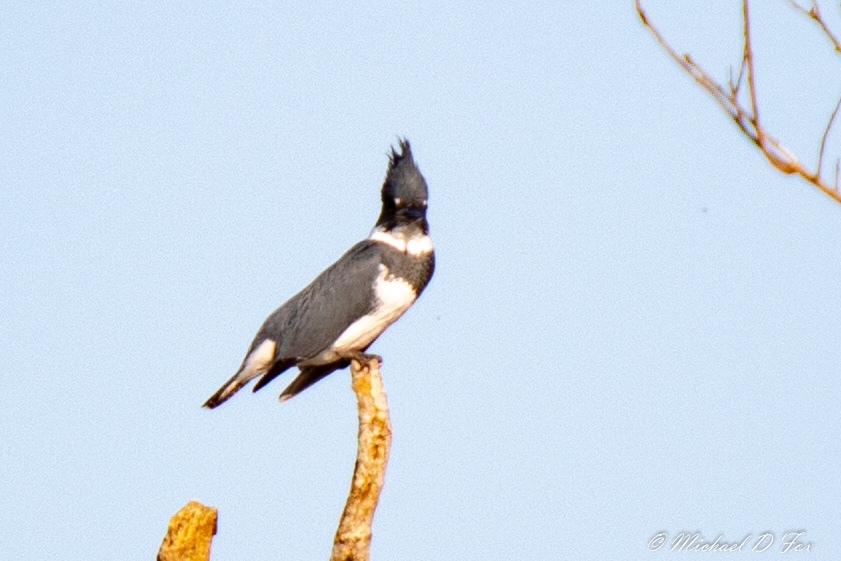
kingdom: Animalia
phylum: Chordata
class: Aves
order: Coraciiformes
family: Alcedinidae
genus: Megaceryle
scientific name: Megaceryle alcyon
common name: Belted kingfisher
